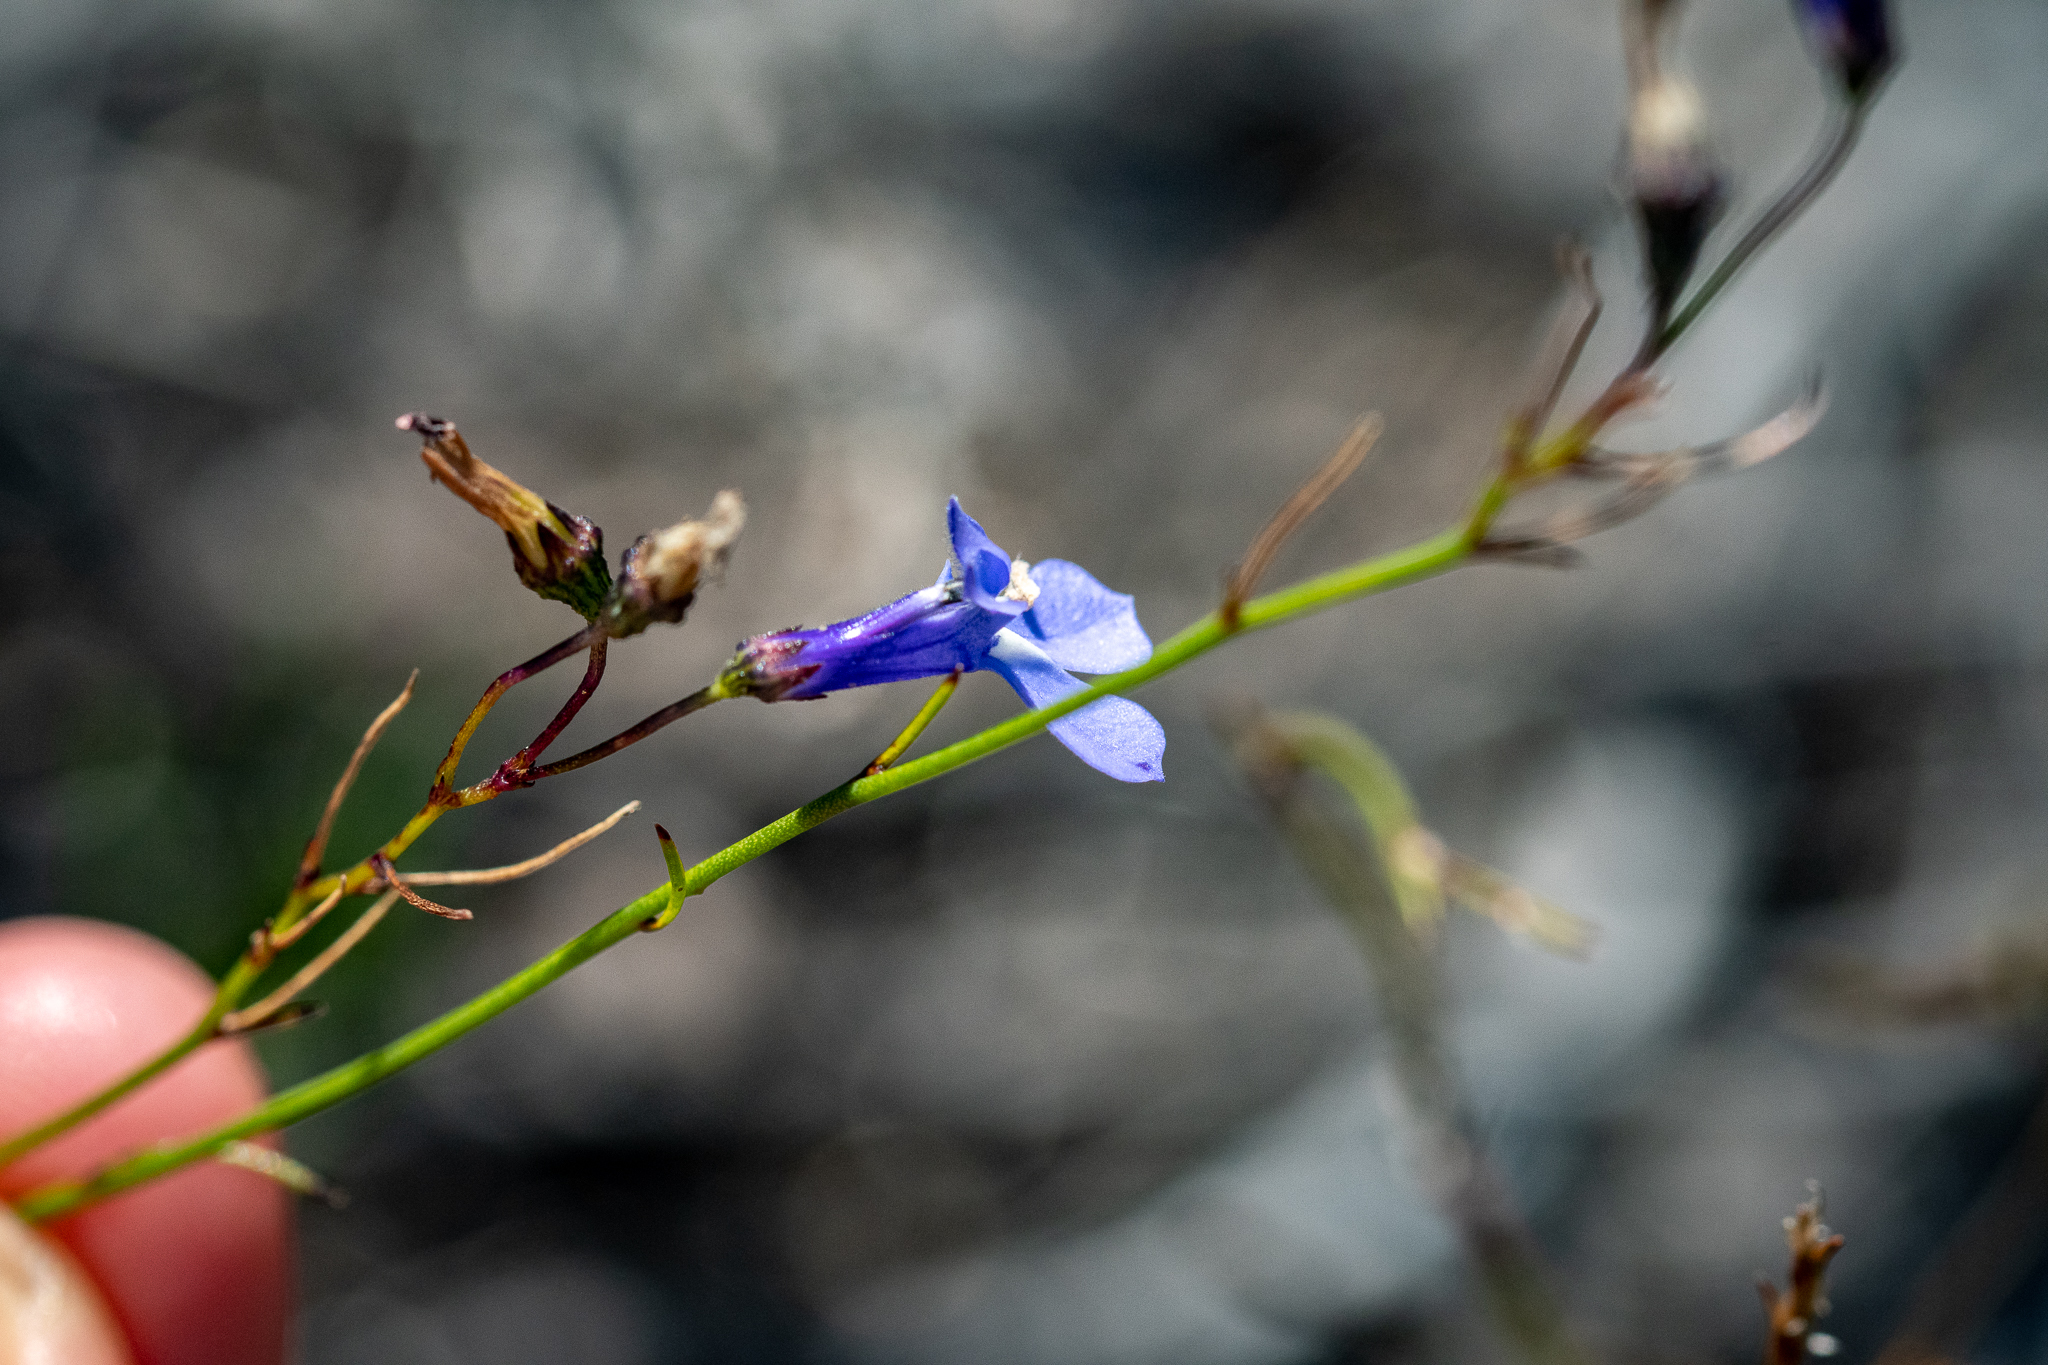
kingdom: Plantae
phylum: Tracheophyta
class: Magnoliopsida
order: Asterales
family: Campanulaceae
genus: Lobelia
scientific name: Lobelia setacea
